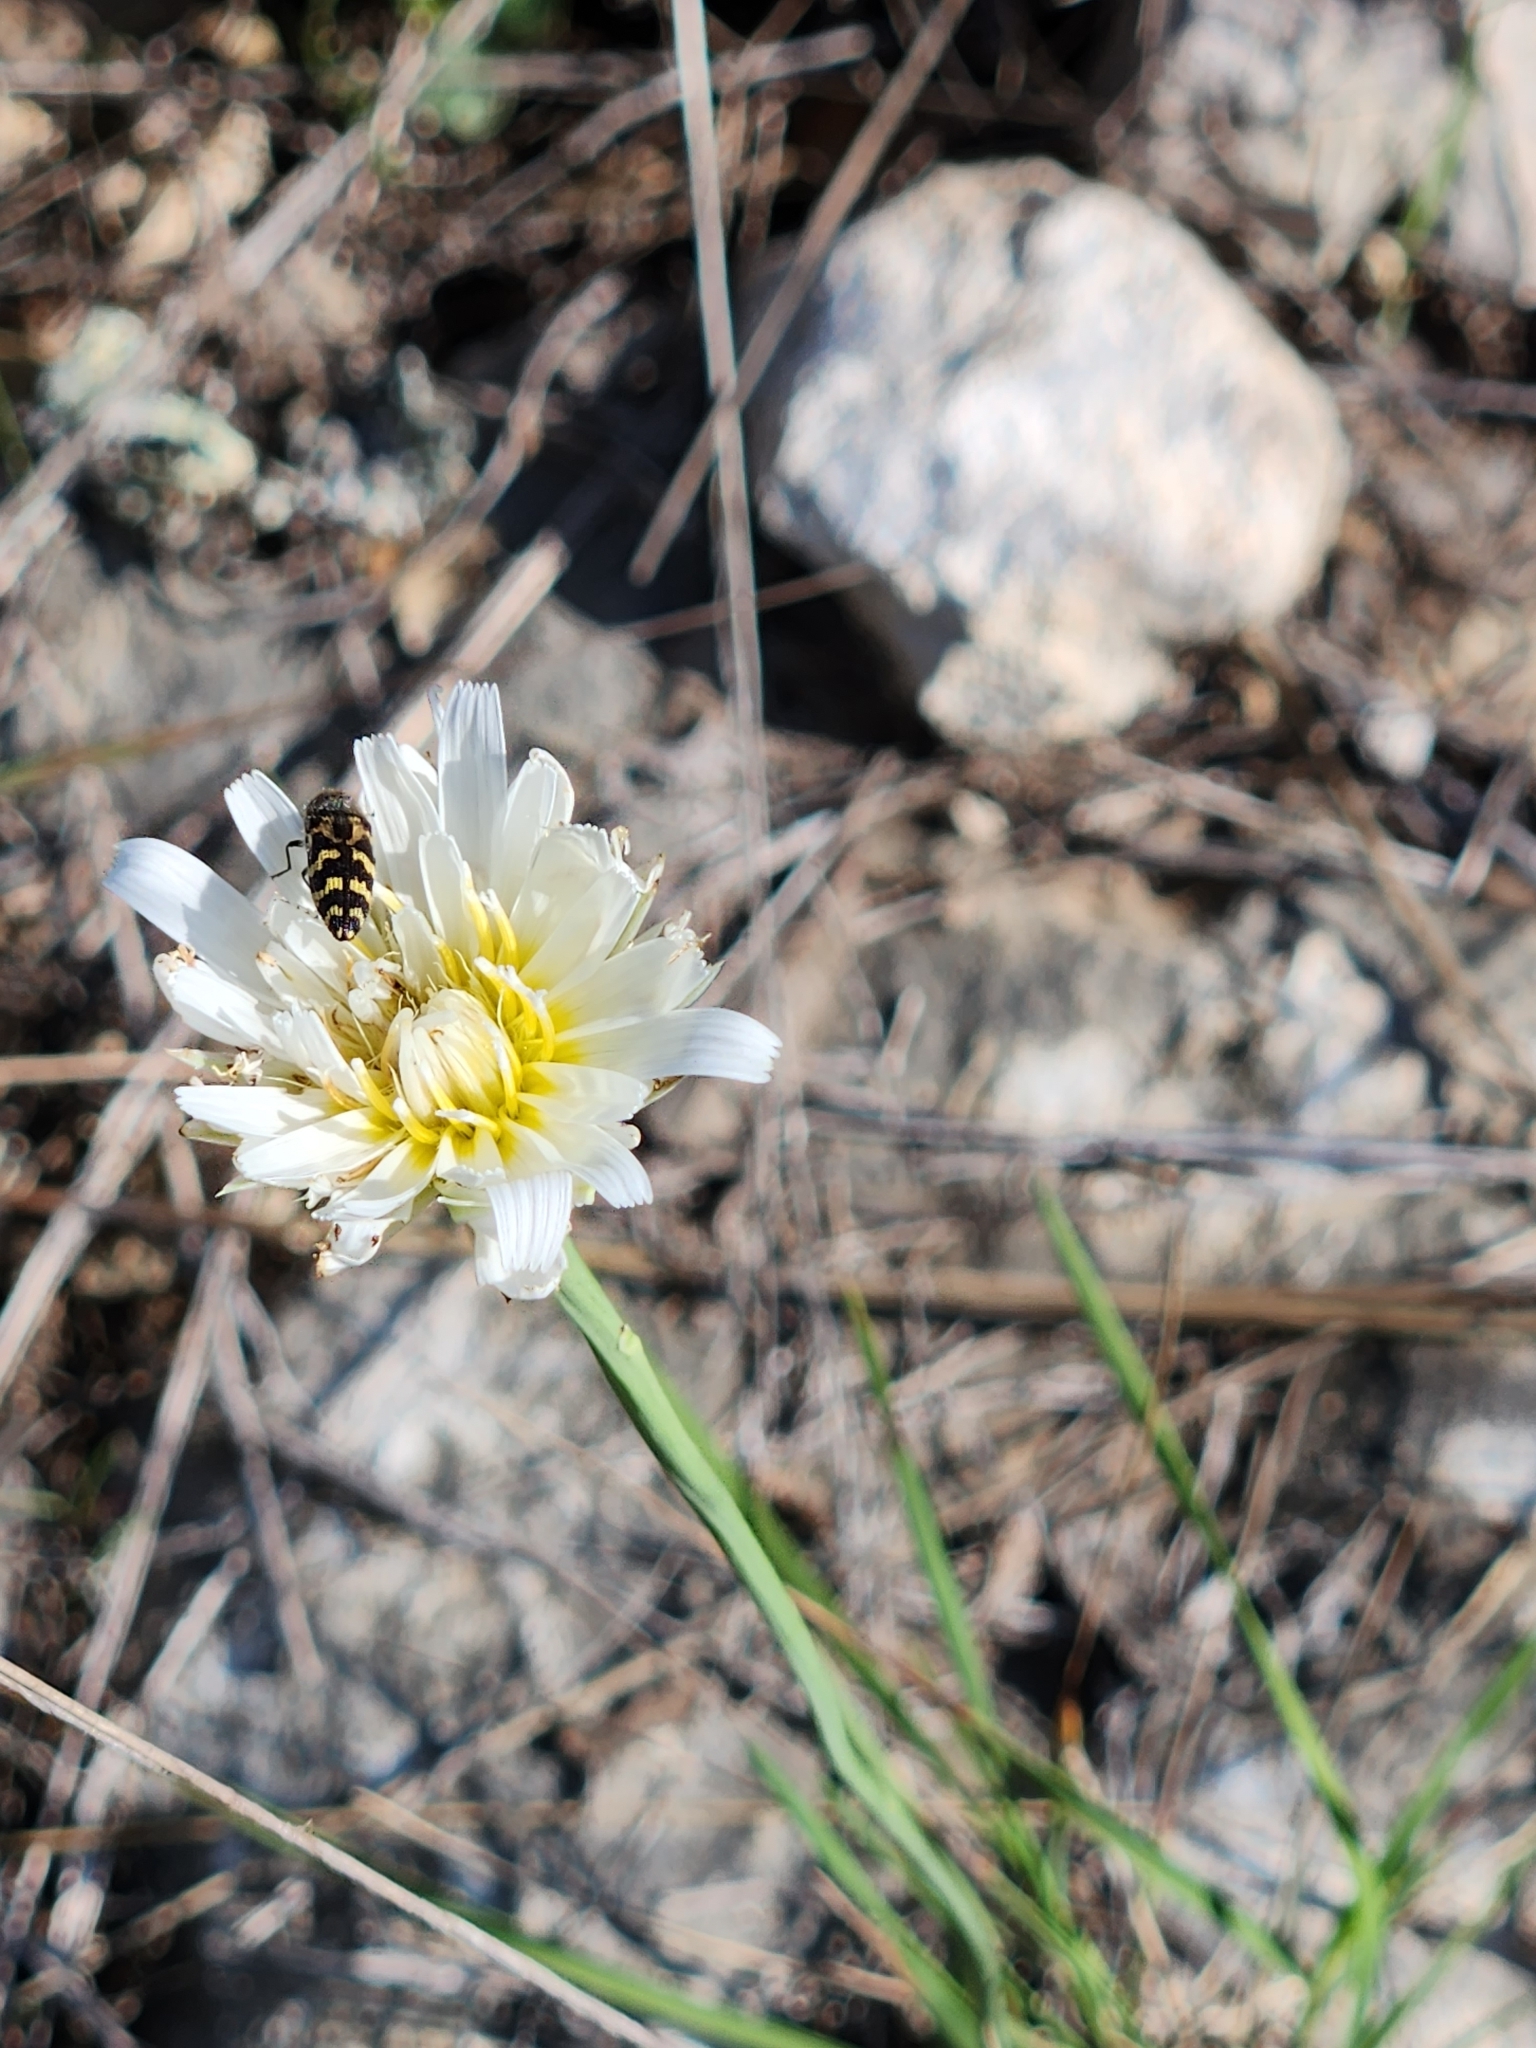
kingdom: Plantae
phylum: Tracheophyta
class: Magnoliopsida
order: Asterales
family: Asteraceae
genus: Pinaropappus
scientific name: Pinaropappus roseus
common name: Rock-lettuce
